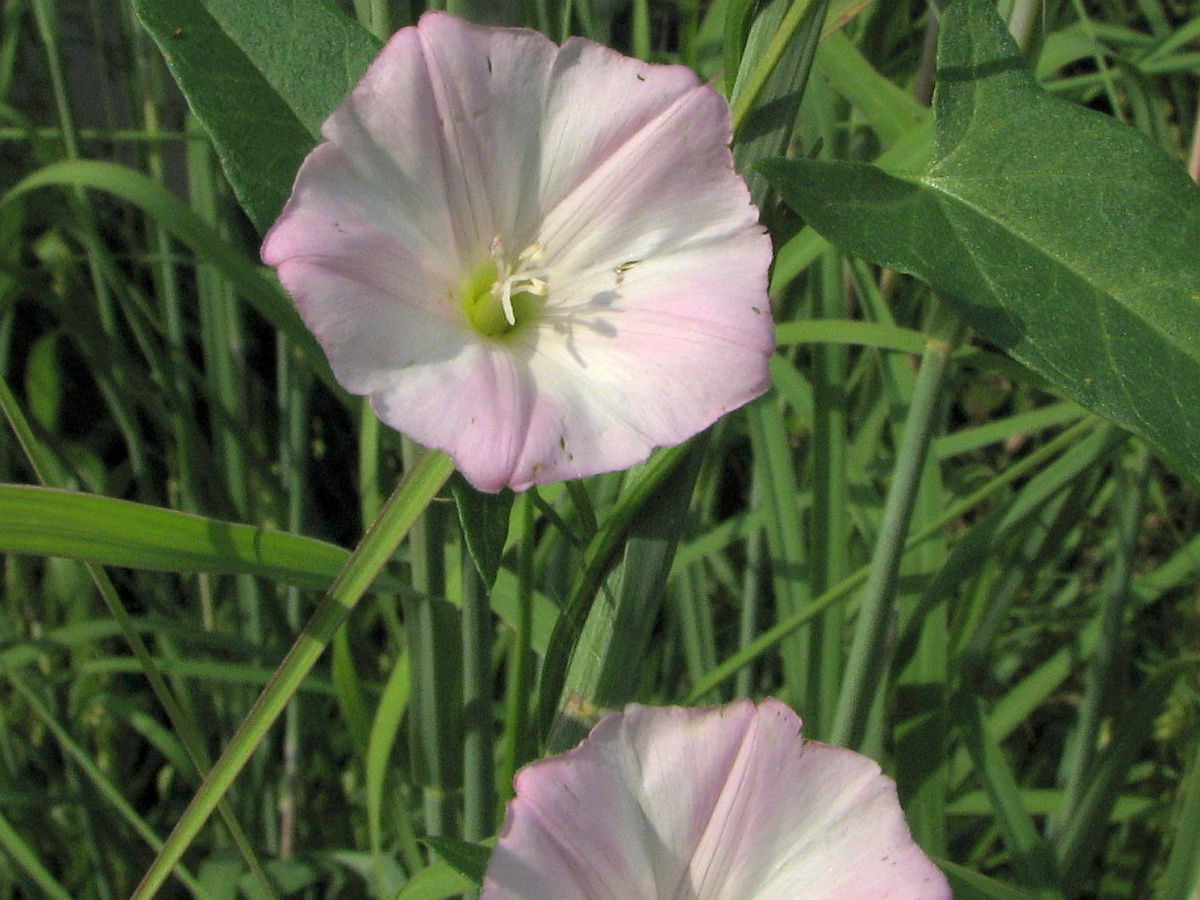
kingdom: Plantae
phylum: Tracheophyta
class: Magnoliopsida
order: Solanales
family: Convolvulaceae
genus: Convolvulus
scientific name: Convolvulus arvensis
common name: Field bindweed
